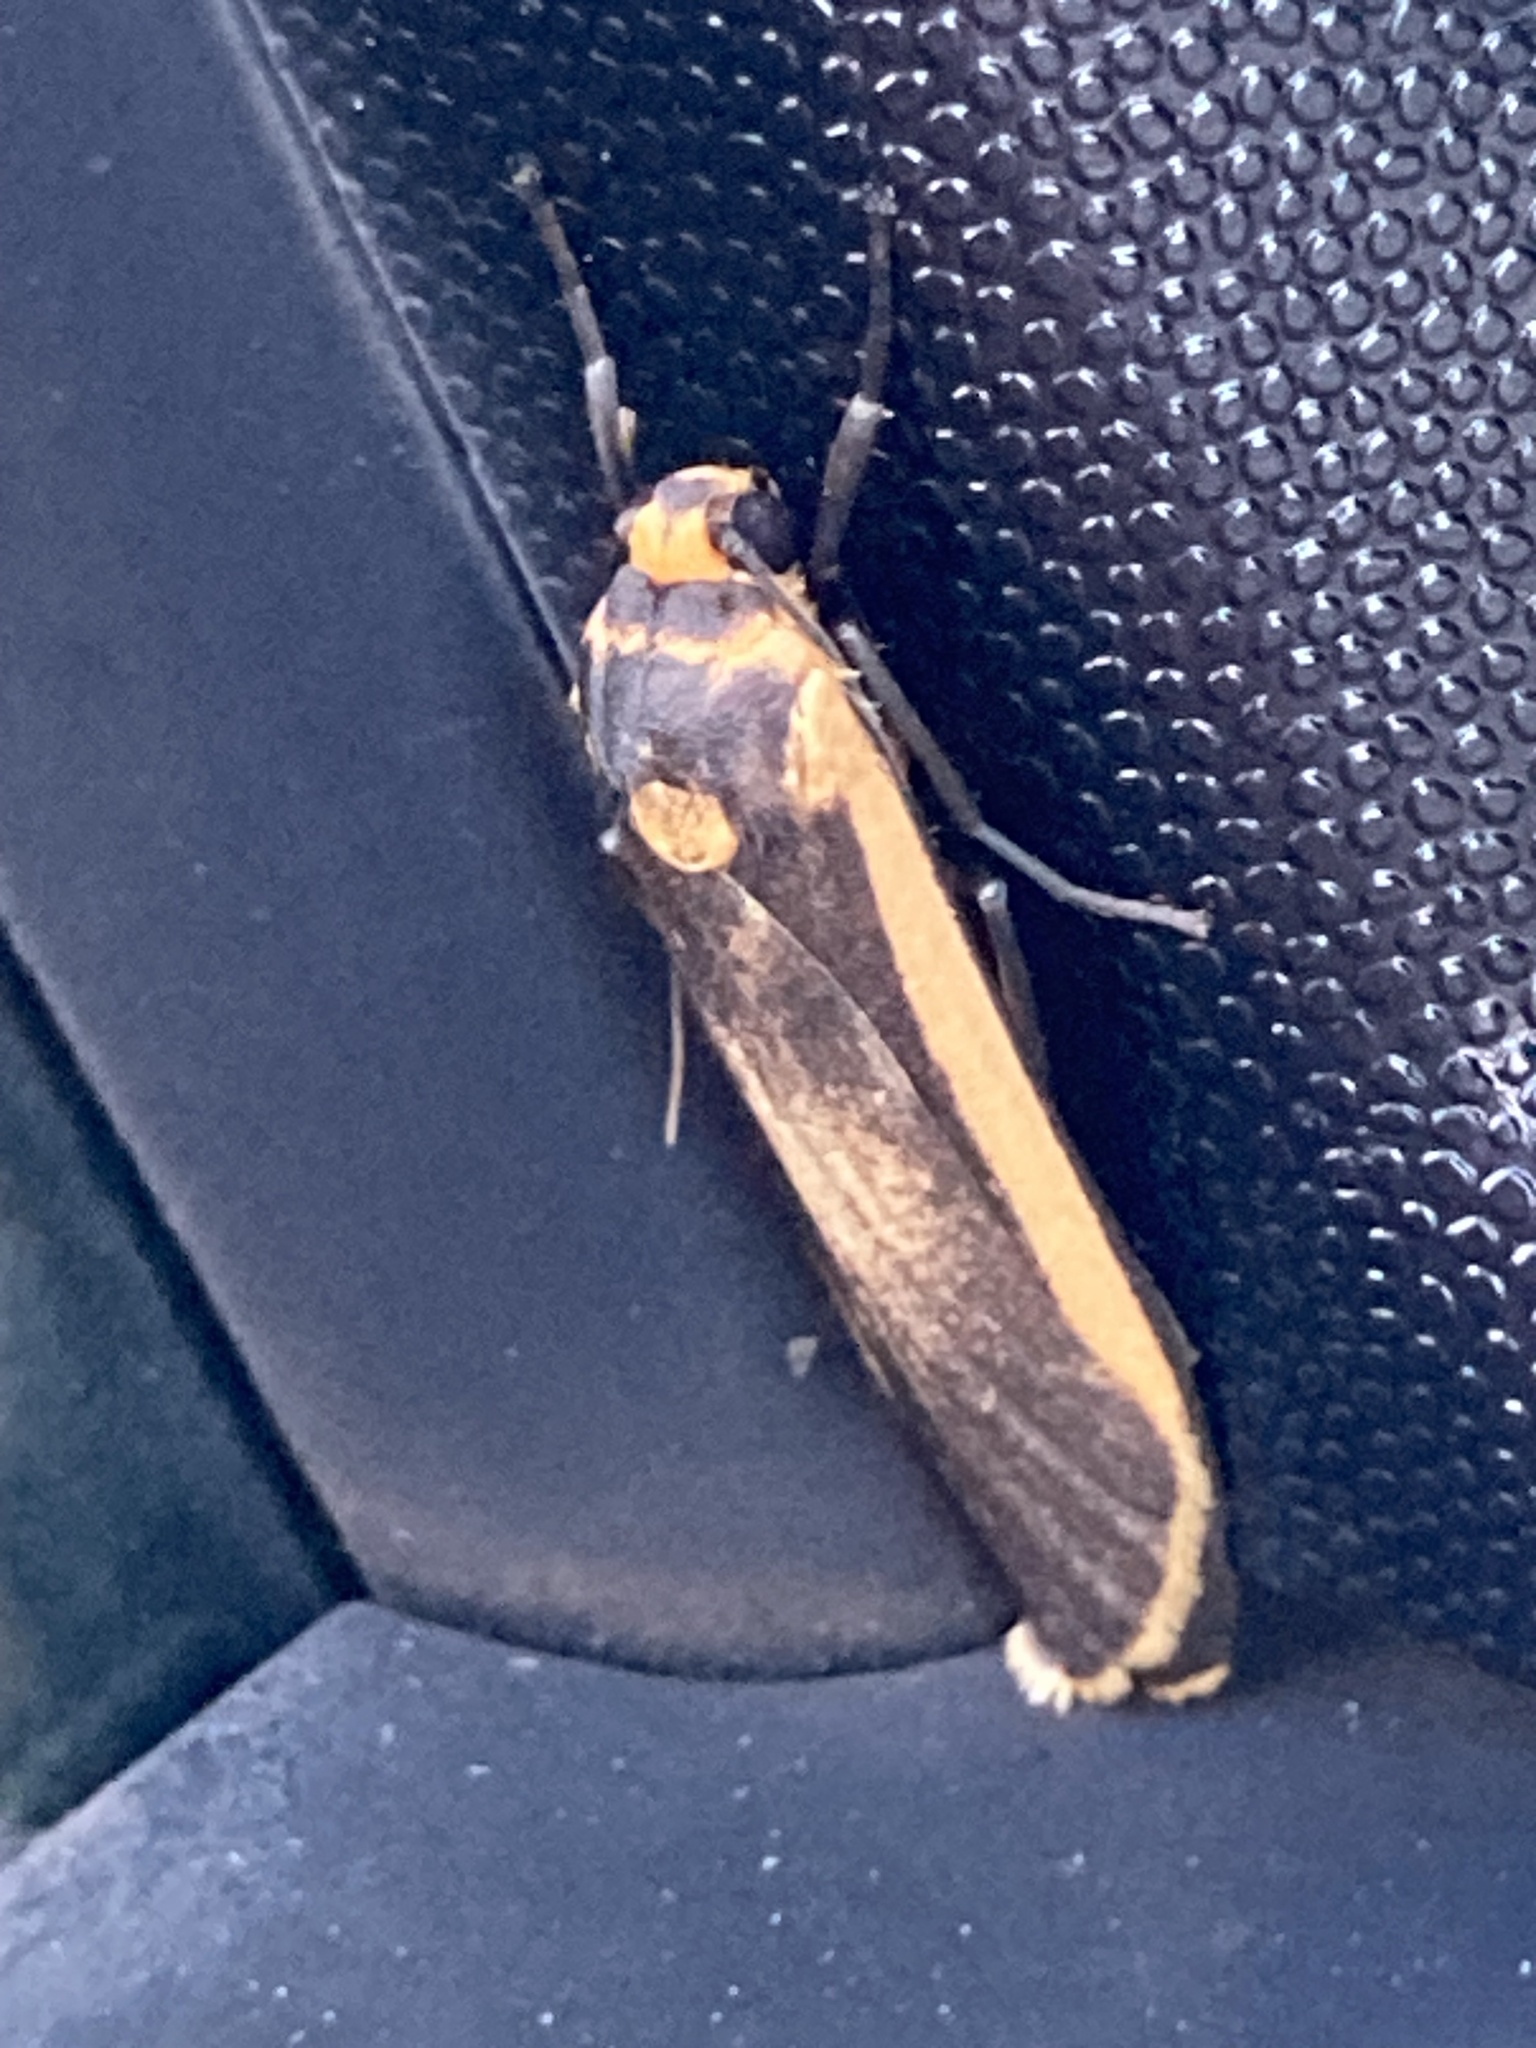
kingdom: Animalia
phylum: Arthropoda
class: Insecta
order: Lepidoptera
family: Erebidae
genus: Brunia
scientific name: Brunia replana
